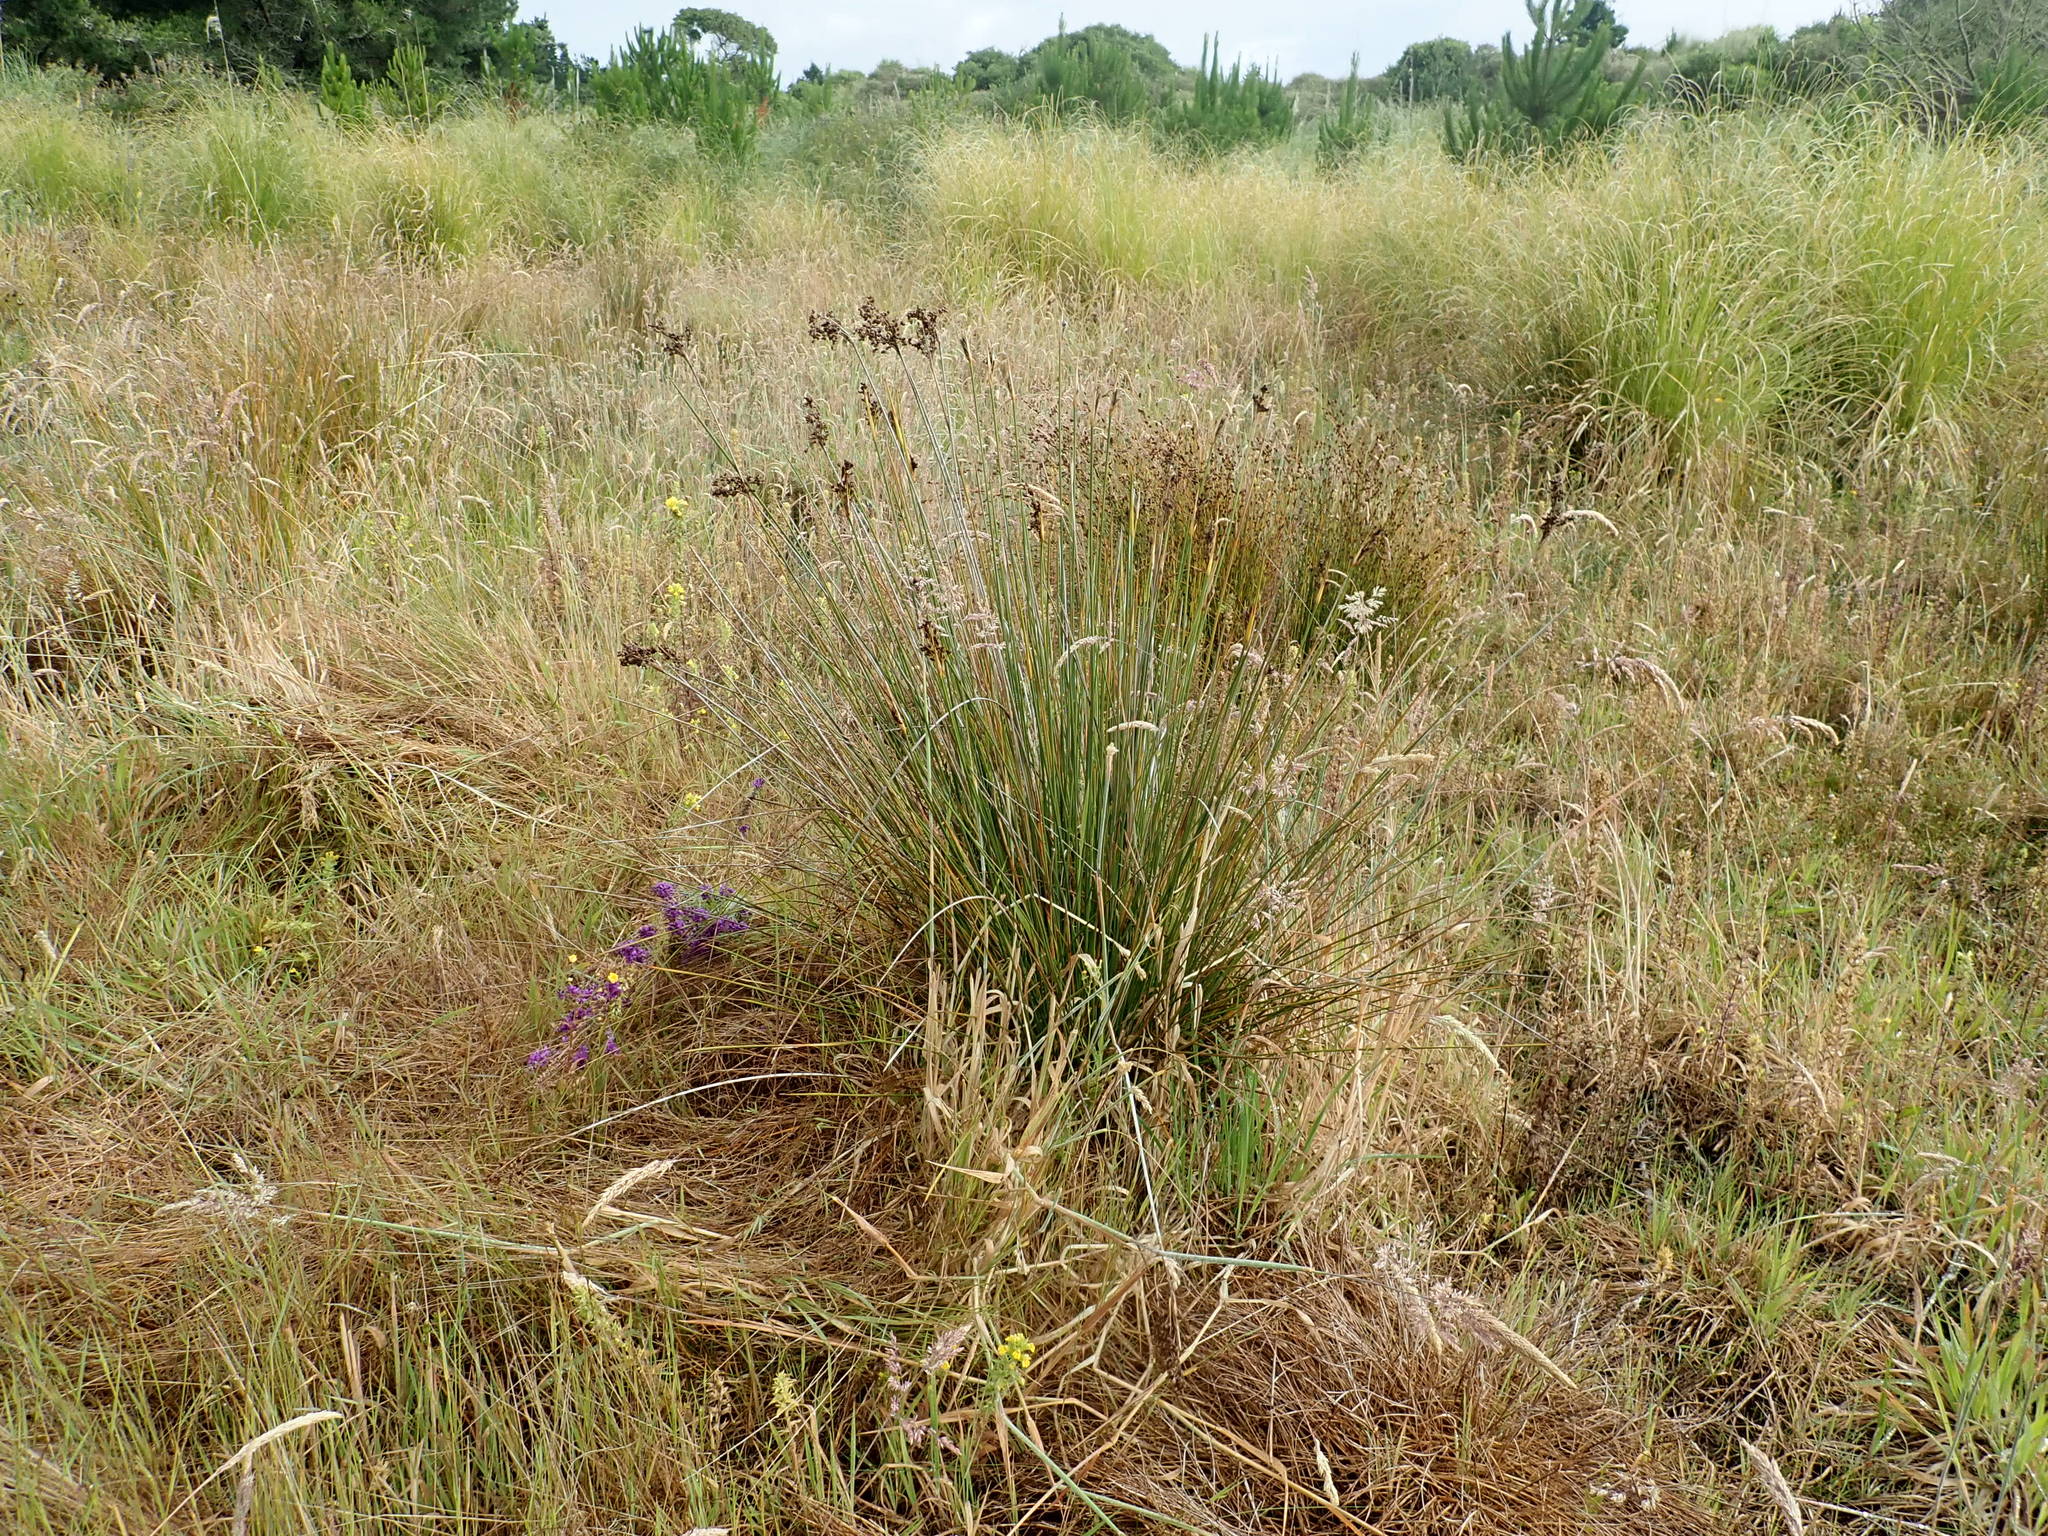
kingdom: Plantae
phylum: Tracheophyta
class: Liliopsida
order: Poales
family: Juncaceae
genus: Juncus
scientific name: Juncus acutus
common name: Sharp rush
